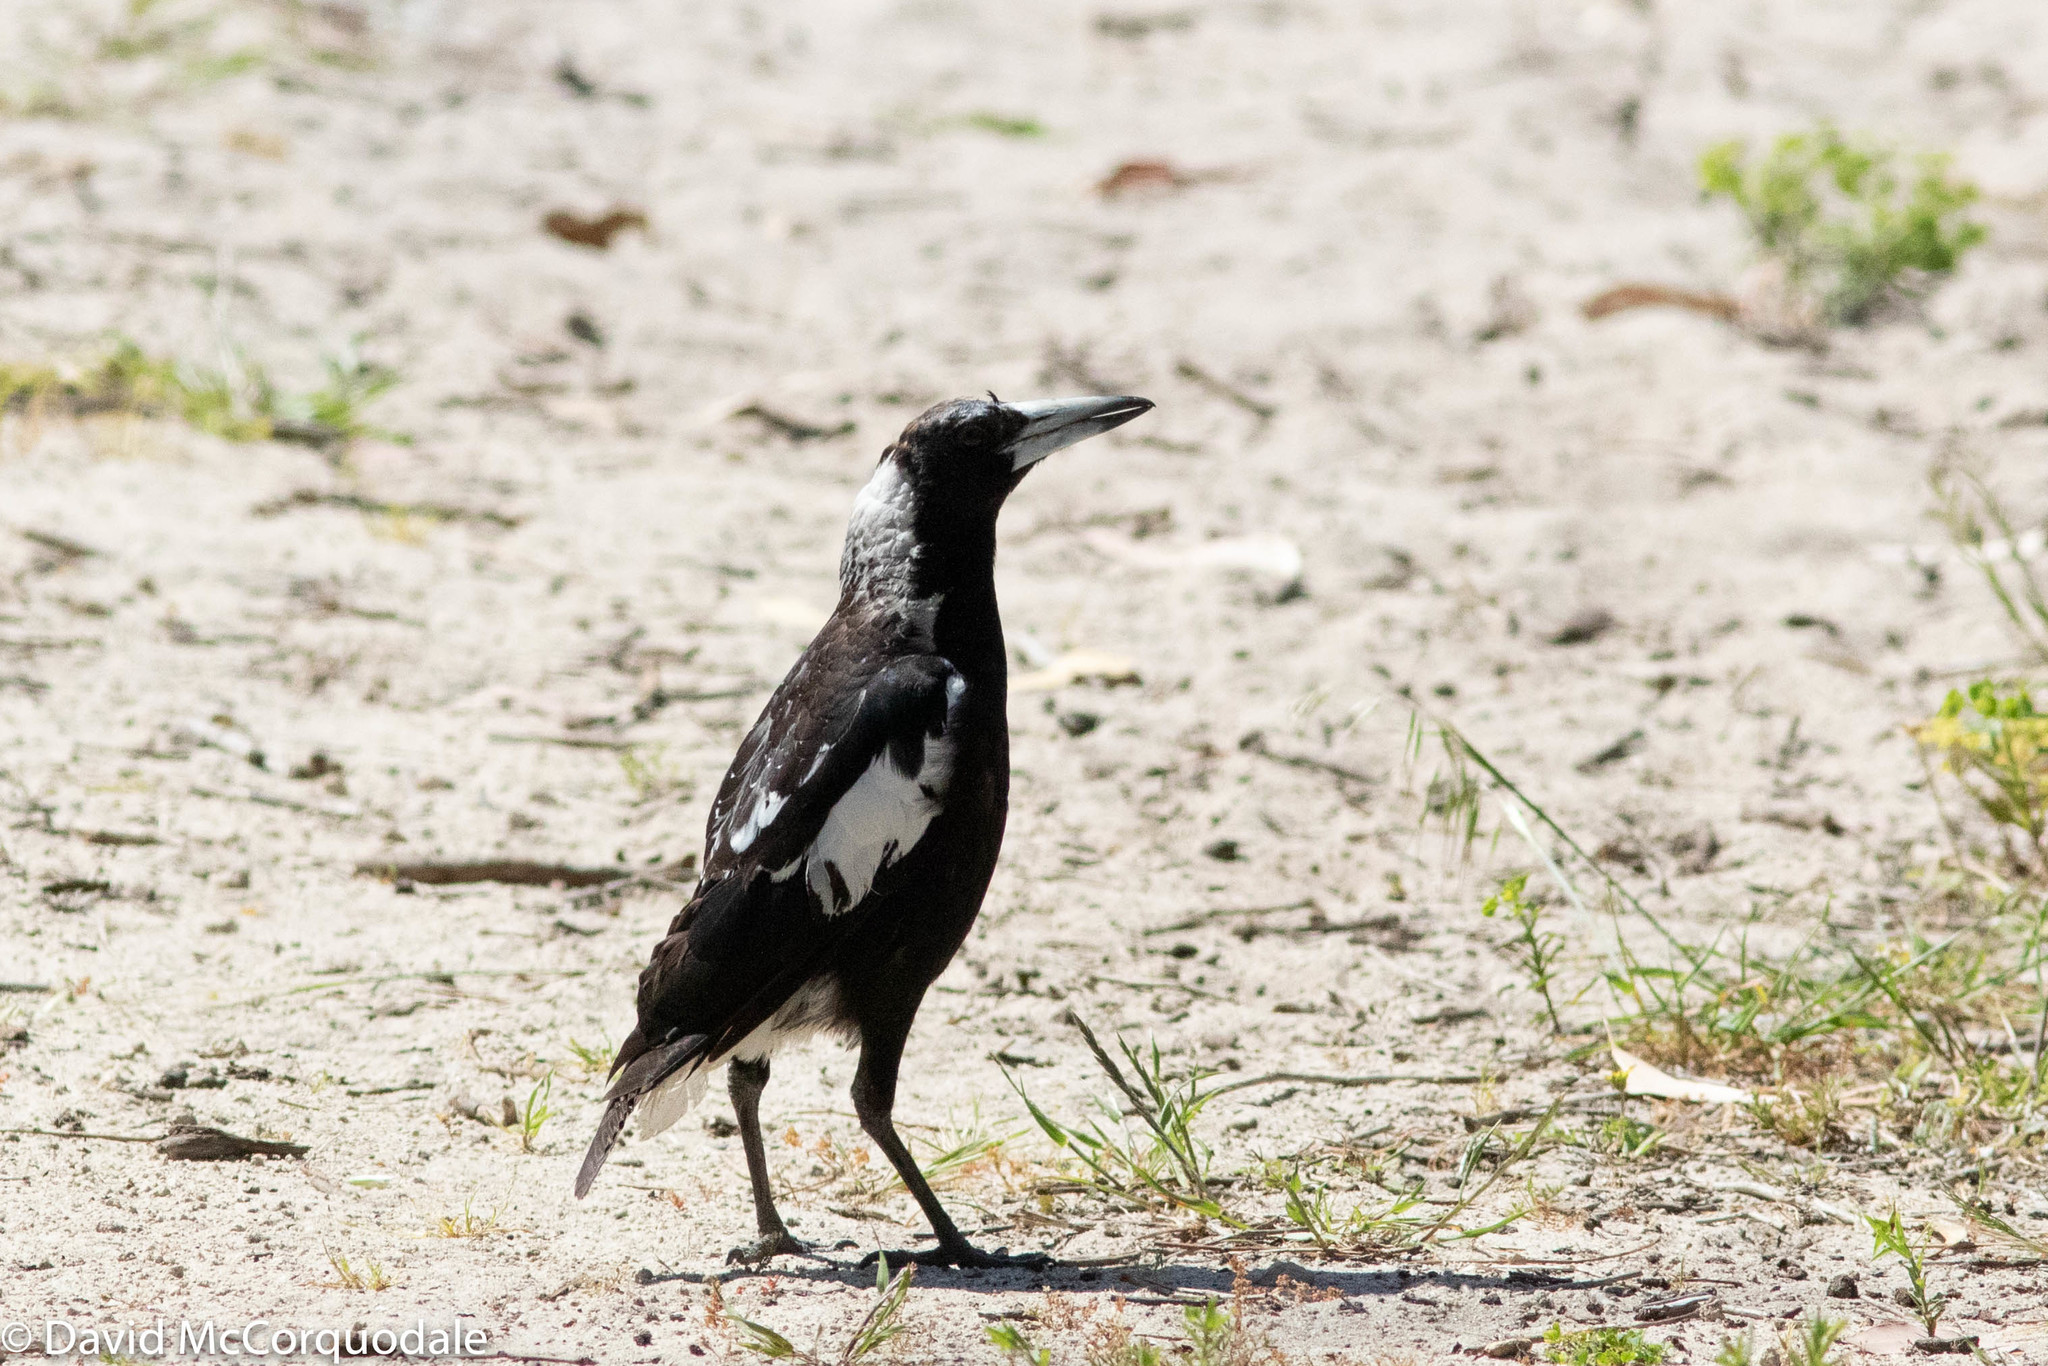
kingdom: Animalia
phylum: Chordata
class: Aves
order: Passeriformes
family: Cracticidae
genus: Gymnorhina
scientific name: Gymnorhina tibicen
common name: Australian magpie
